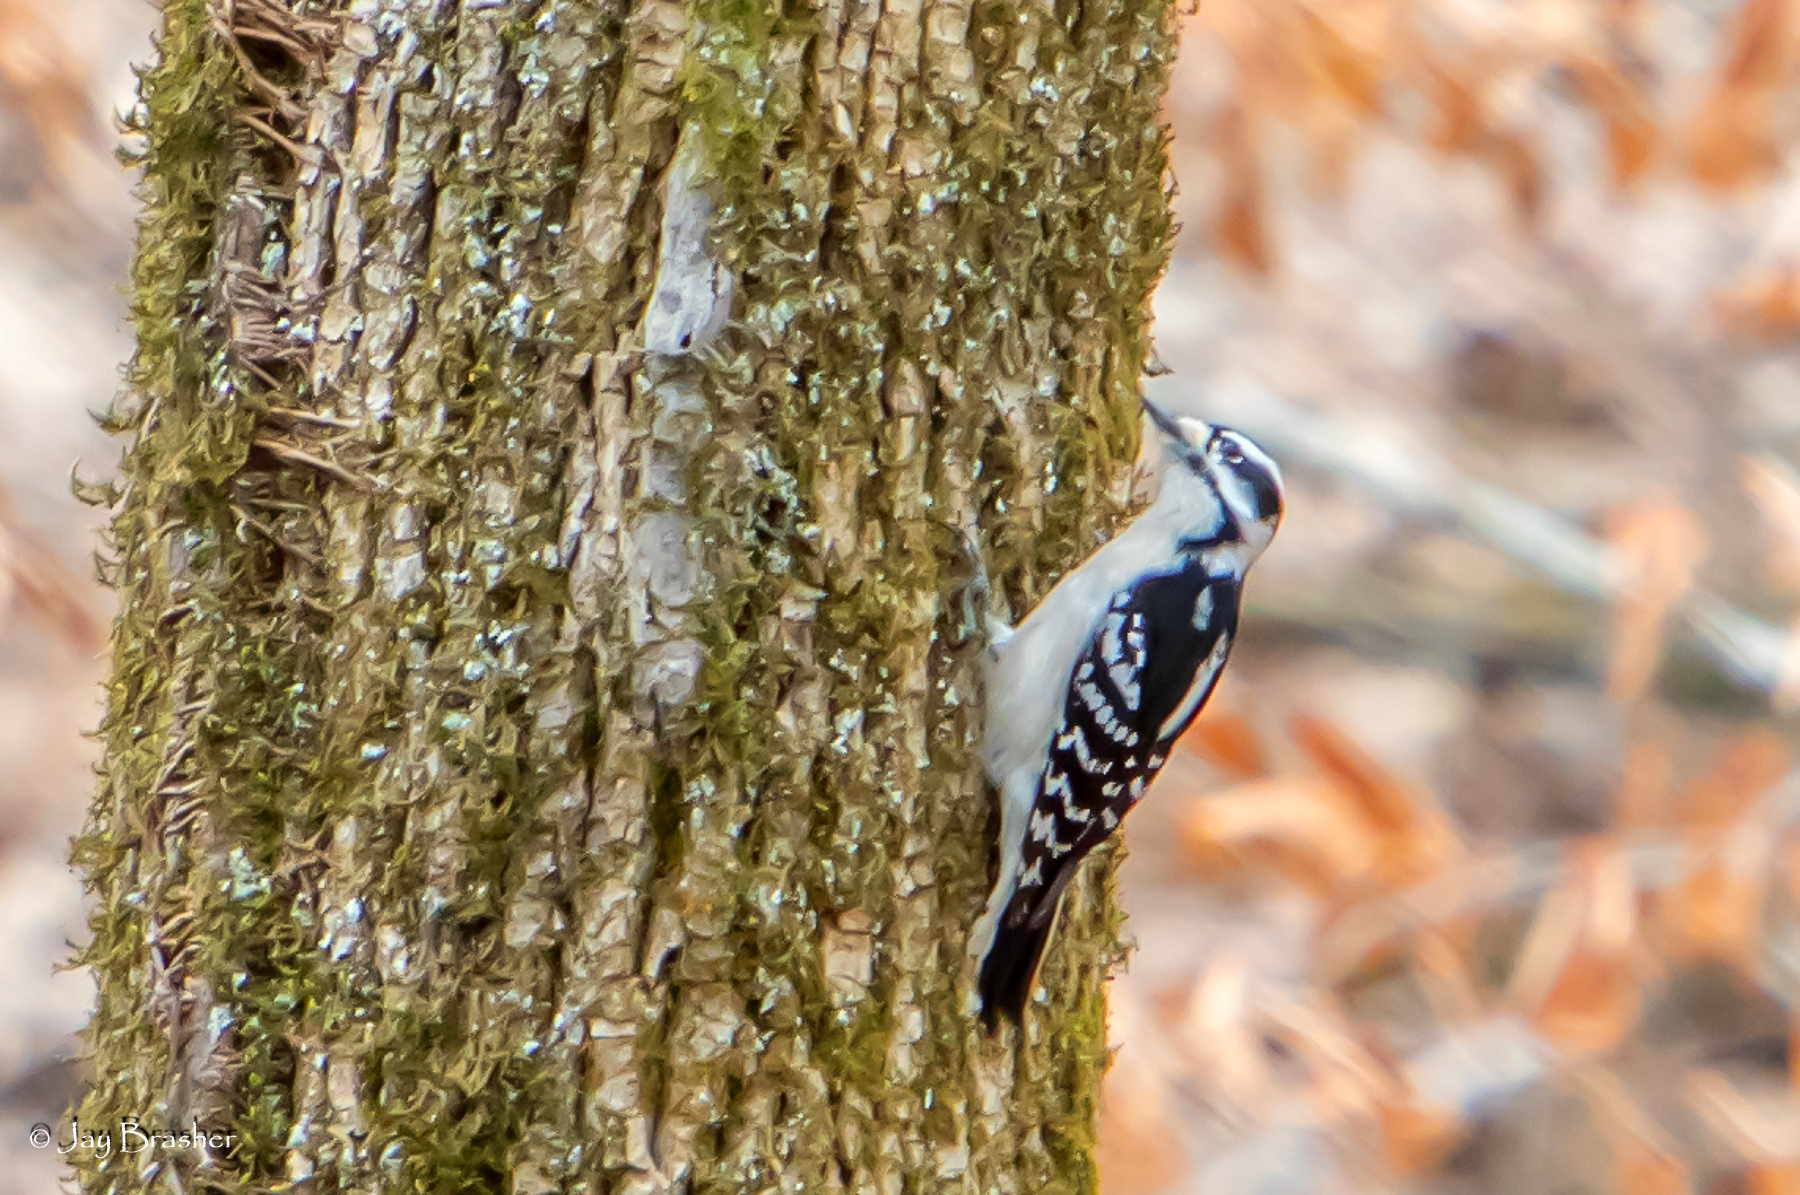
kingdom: Animalia
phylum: Chordata
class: Aves
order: Piciformes
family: Picidae
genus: Dryobates
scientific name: Dryobates pubescens
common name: Downy woodpecker
